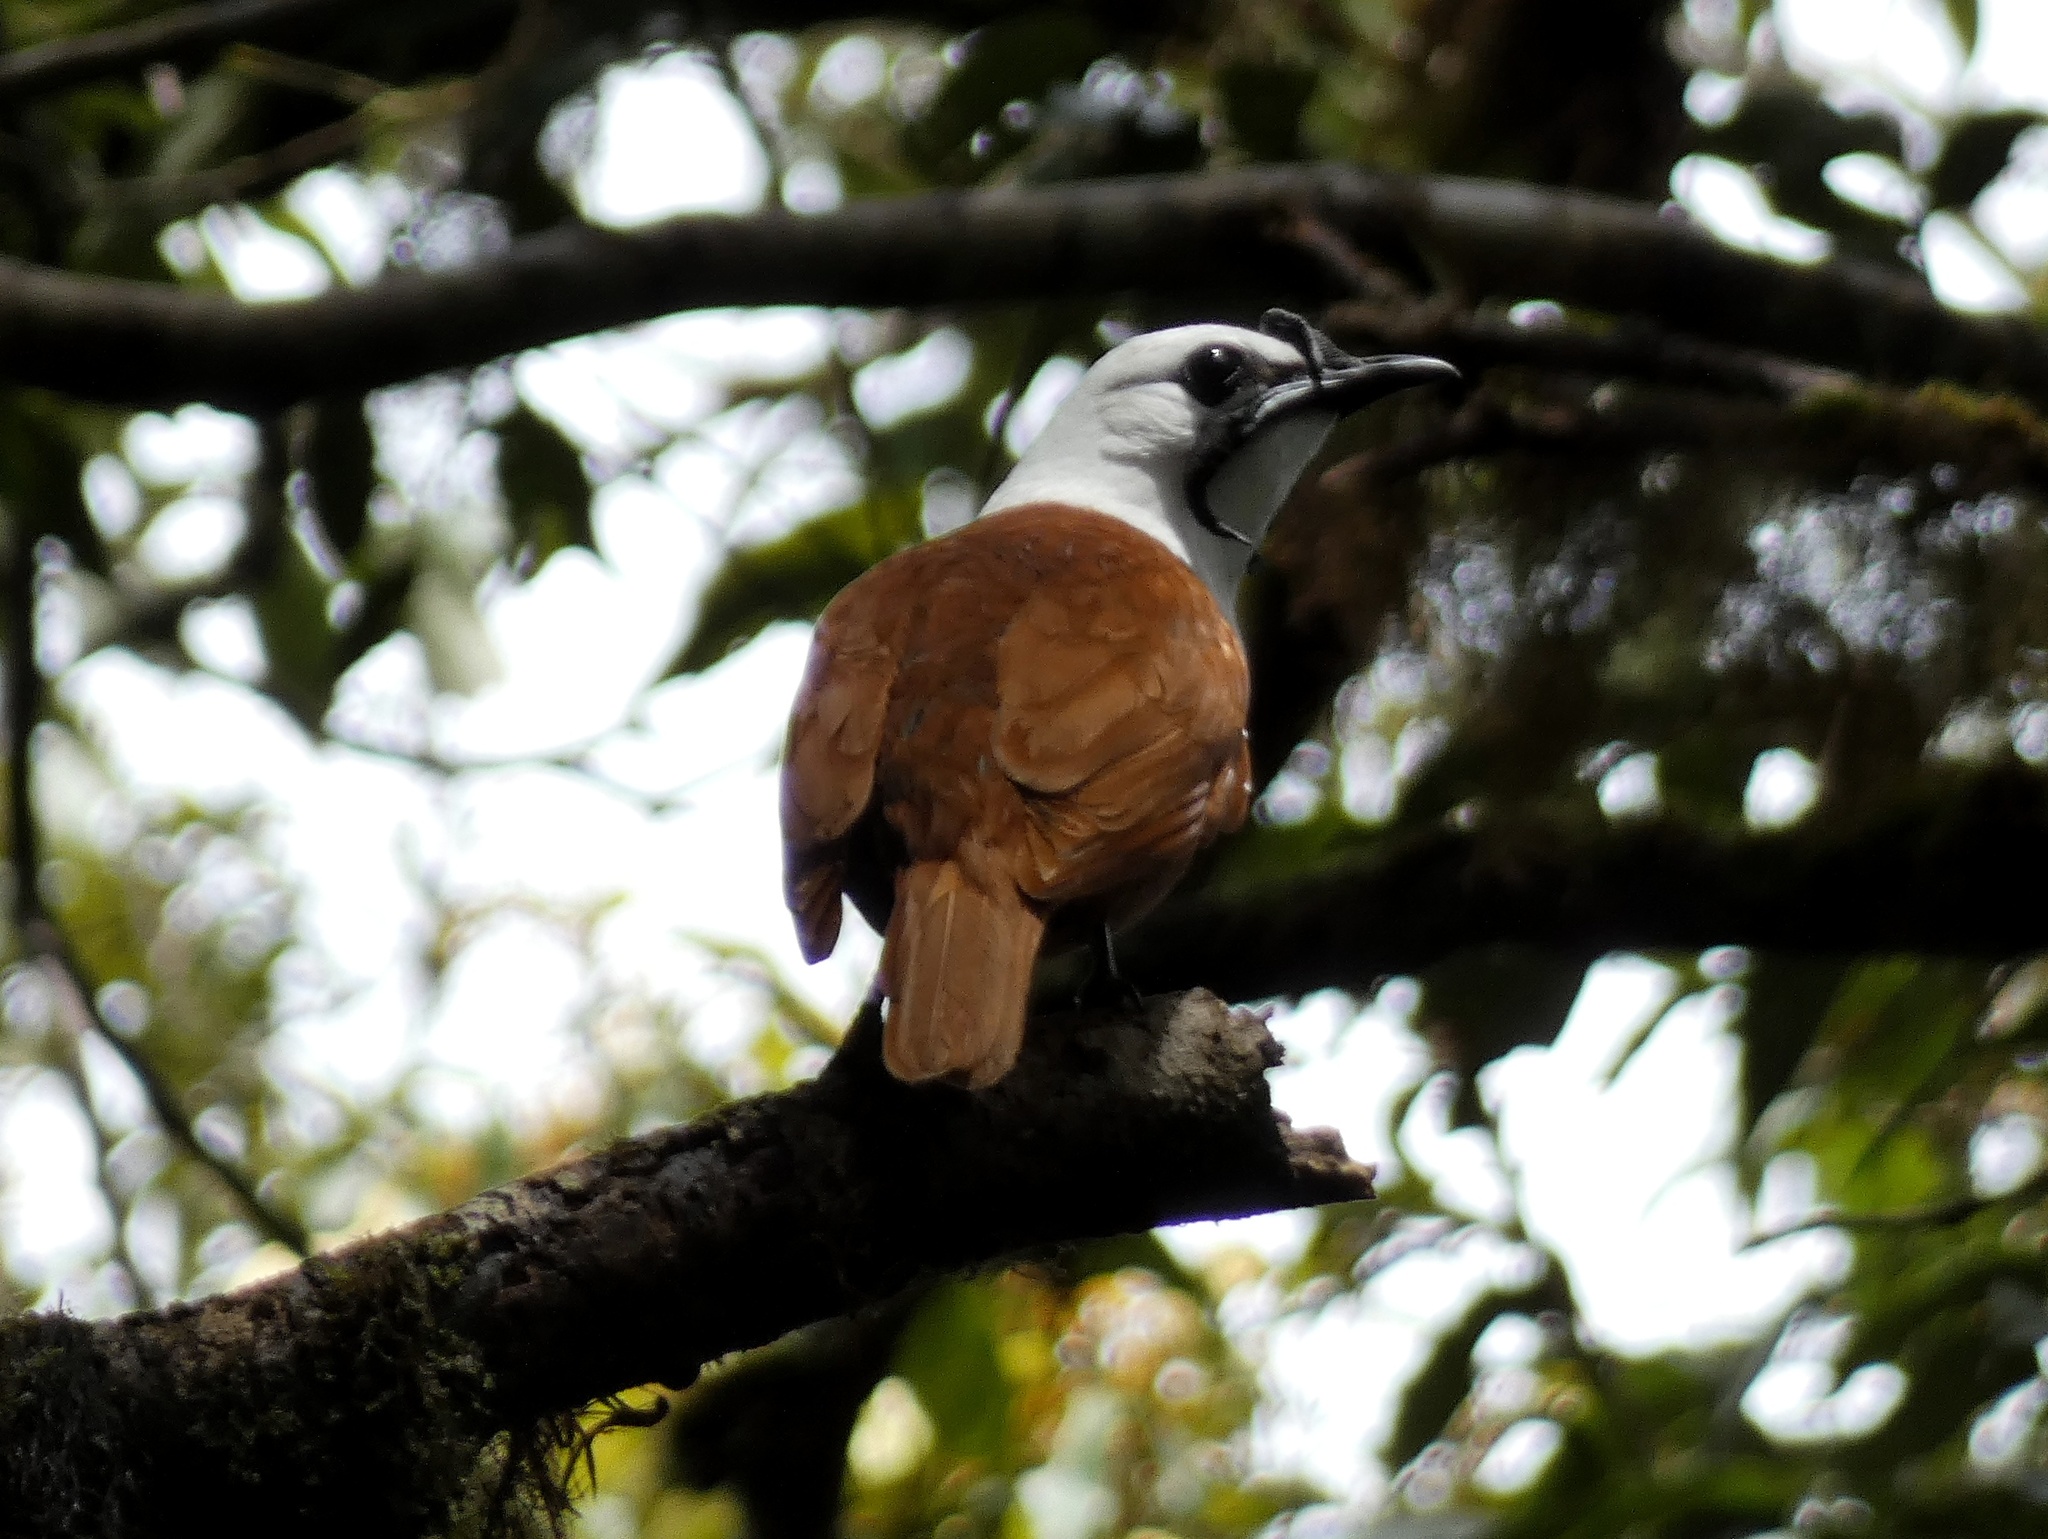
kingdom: Animalia
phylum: Chordata
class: Aves
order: Passeriformes
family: Cotingidae
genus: Procnias
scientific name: Procnias tricarunculatus
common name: Three-wattled bellbird
